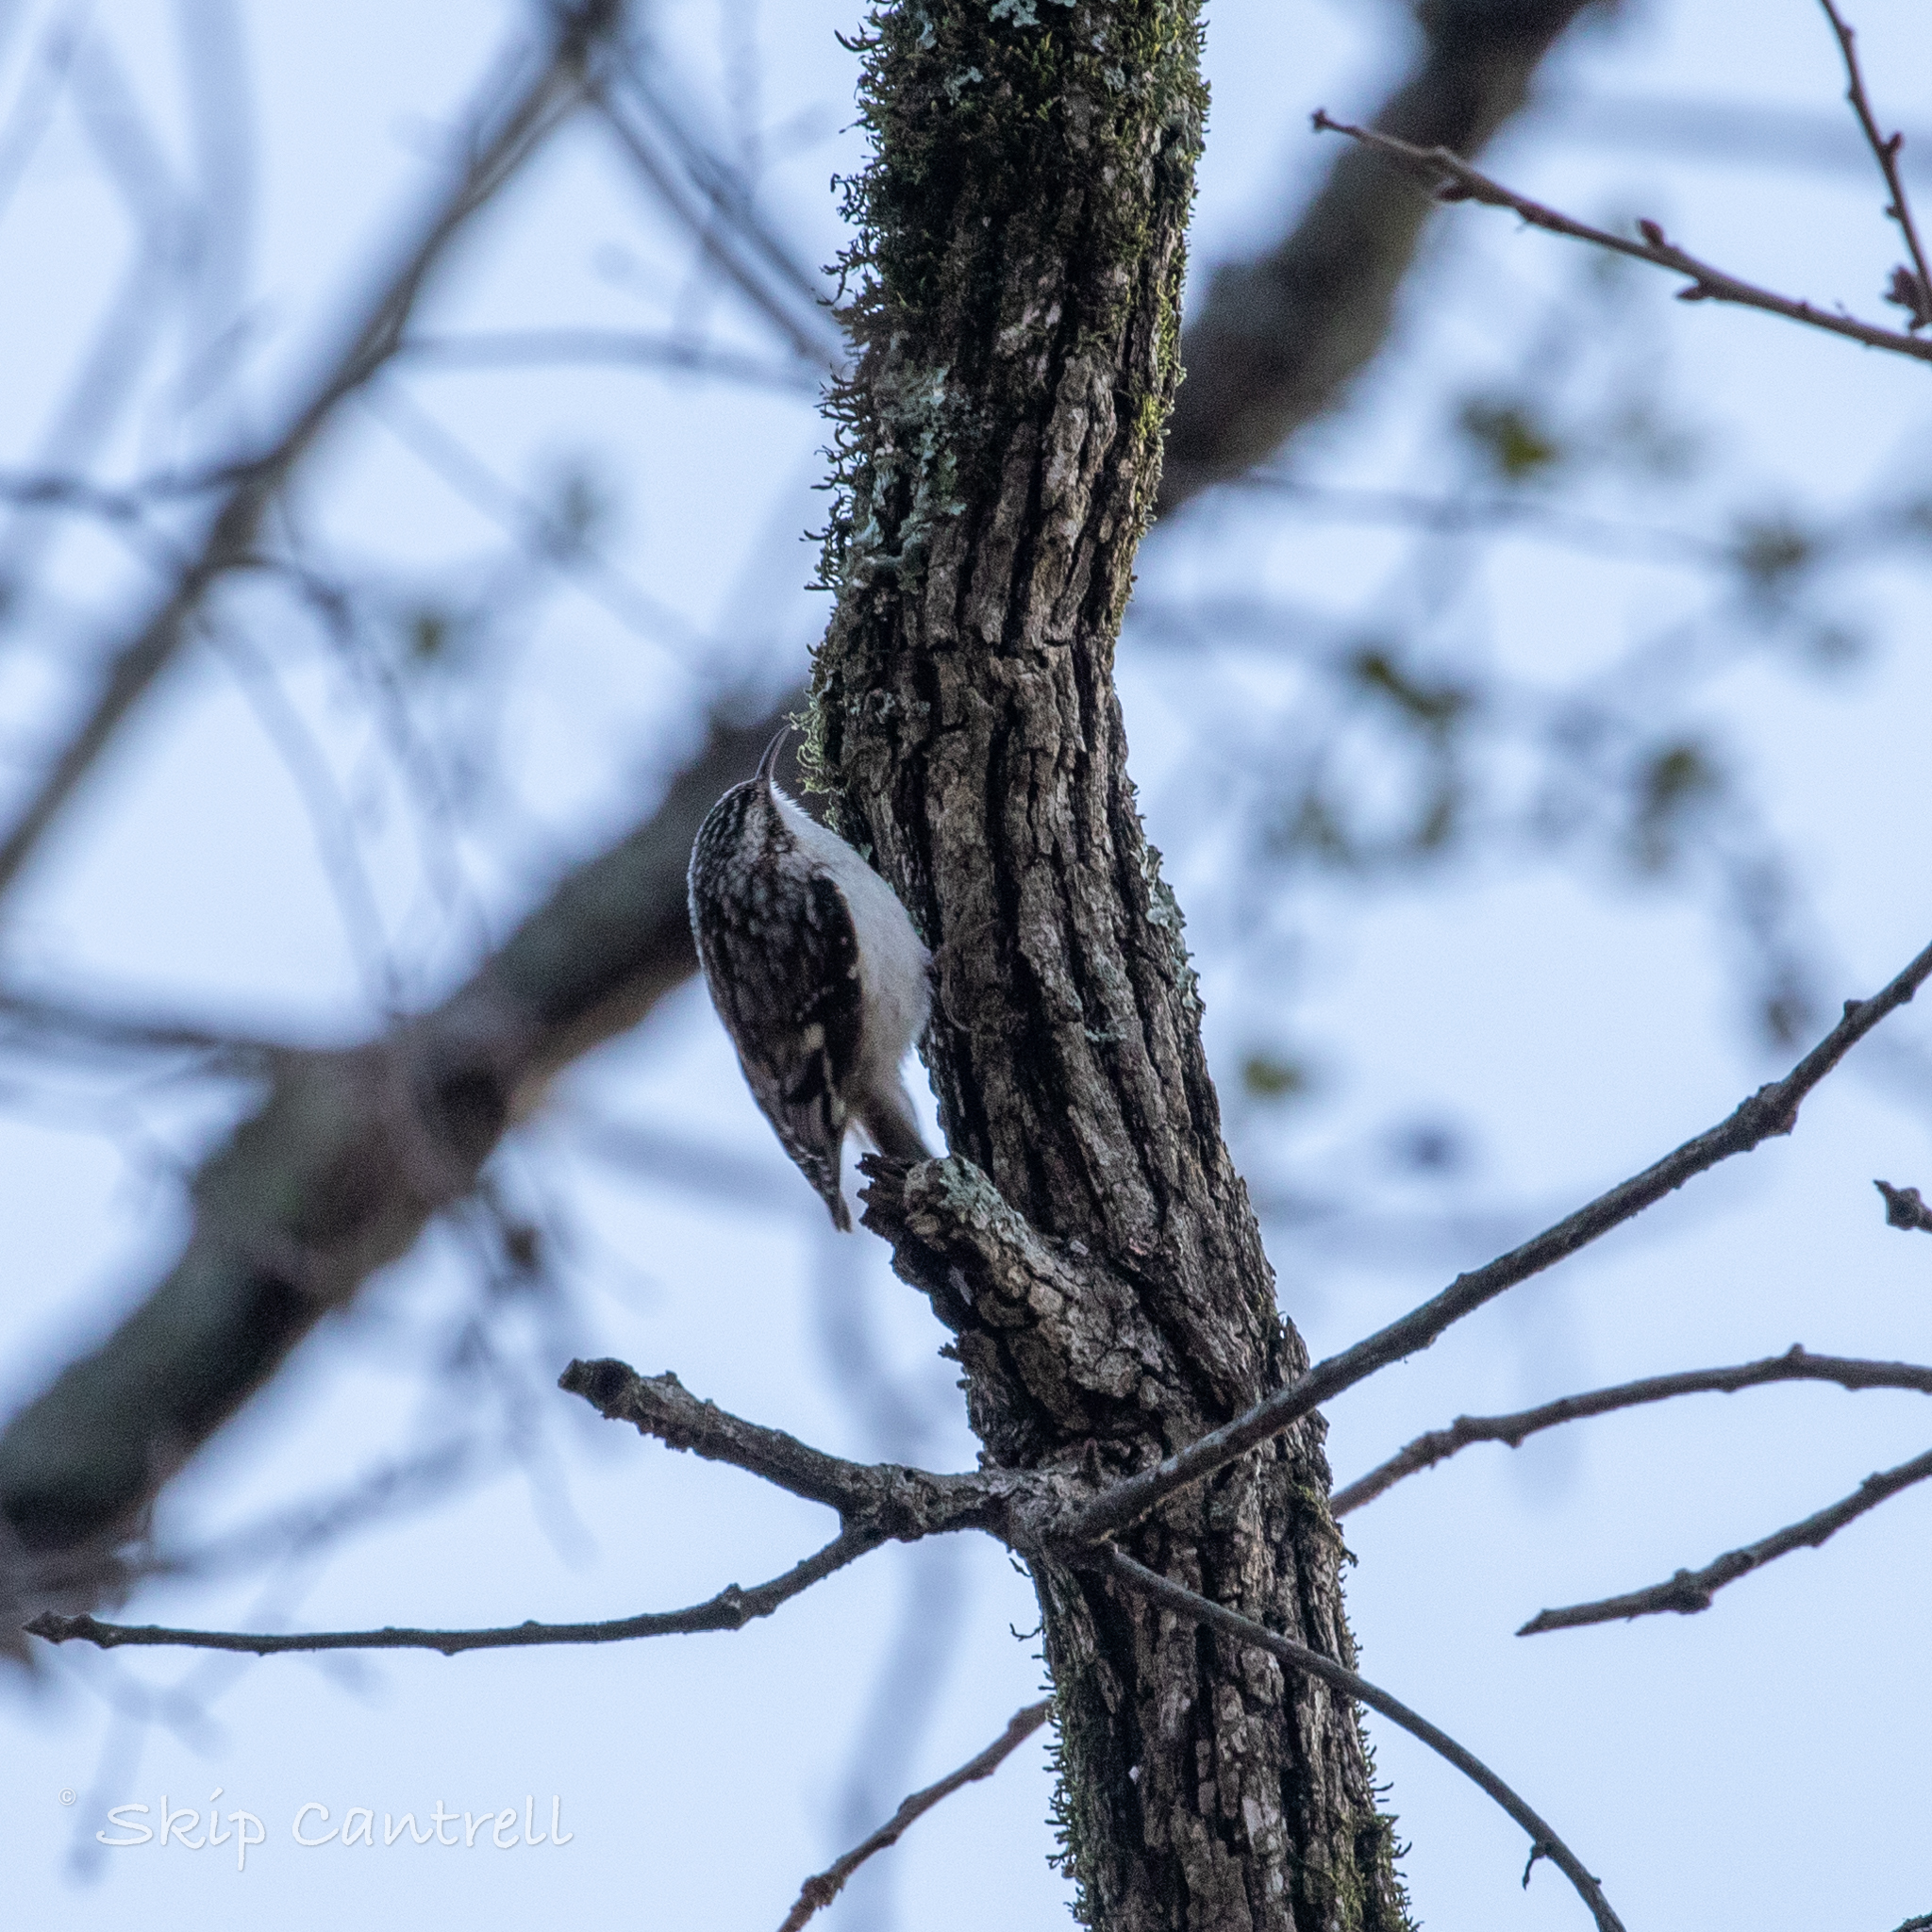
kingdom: Animalia
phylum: Chordata
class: Aves
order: Passeriformes
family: Certhiidae
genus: Certhia
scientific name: Certhia americana
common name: Brown creeper
